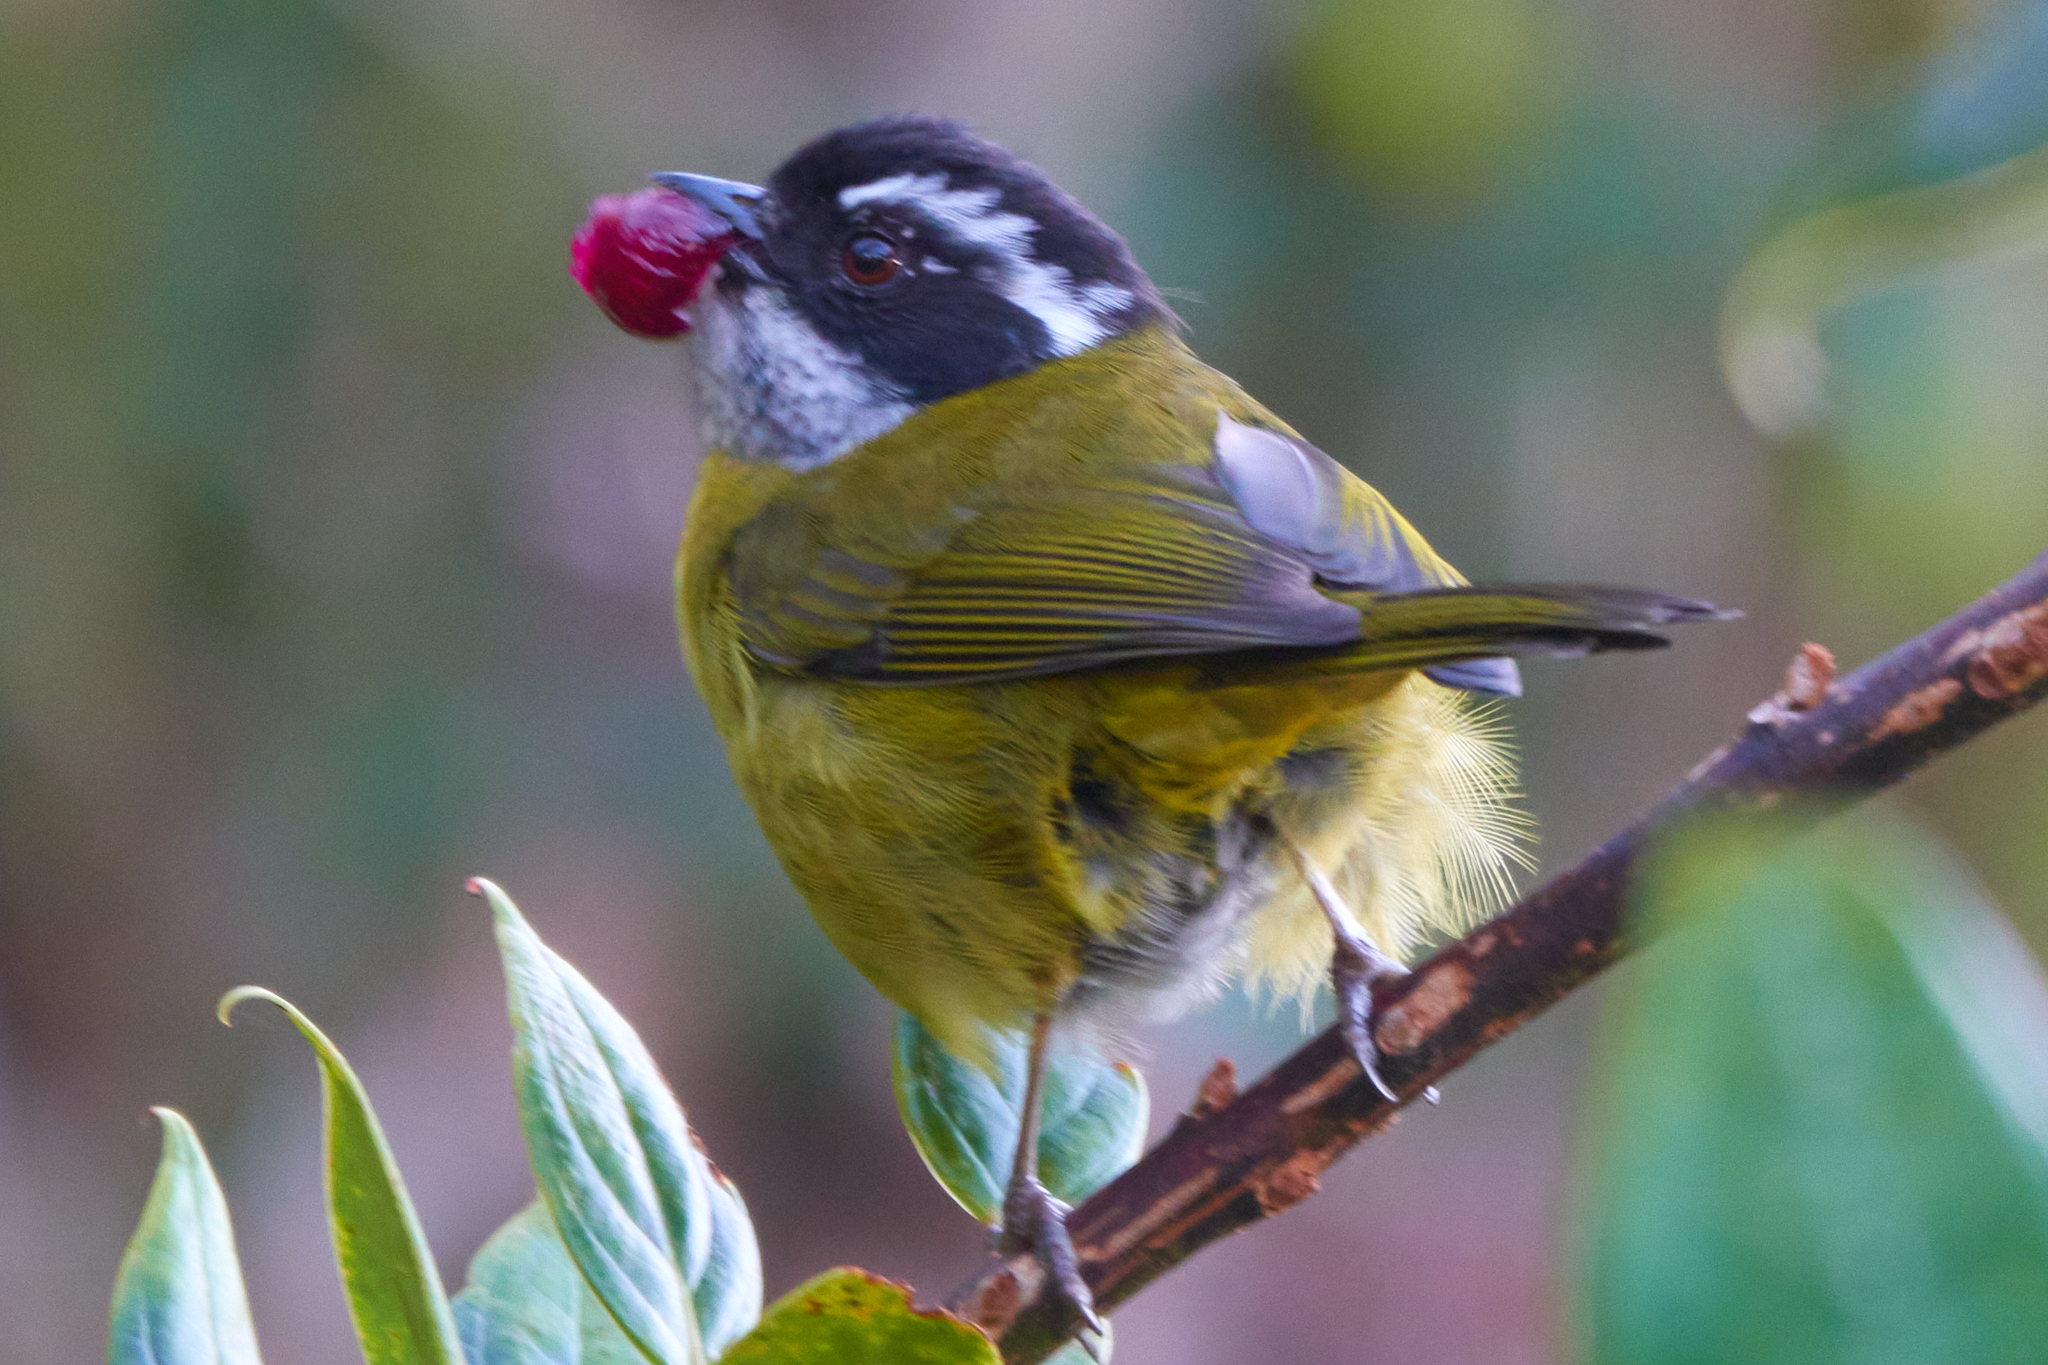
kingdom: Animalia
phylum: Chordata
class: Aves
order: Passeriformes
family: Passerellidae
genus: Chlorospingus
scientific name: Chlorospingus pileatus
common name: Sooty-capped bush-tanager
